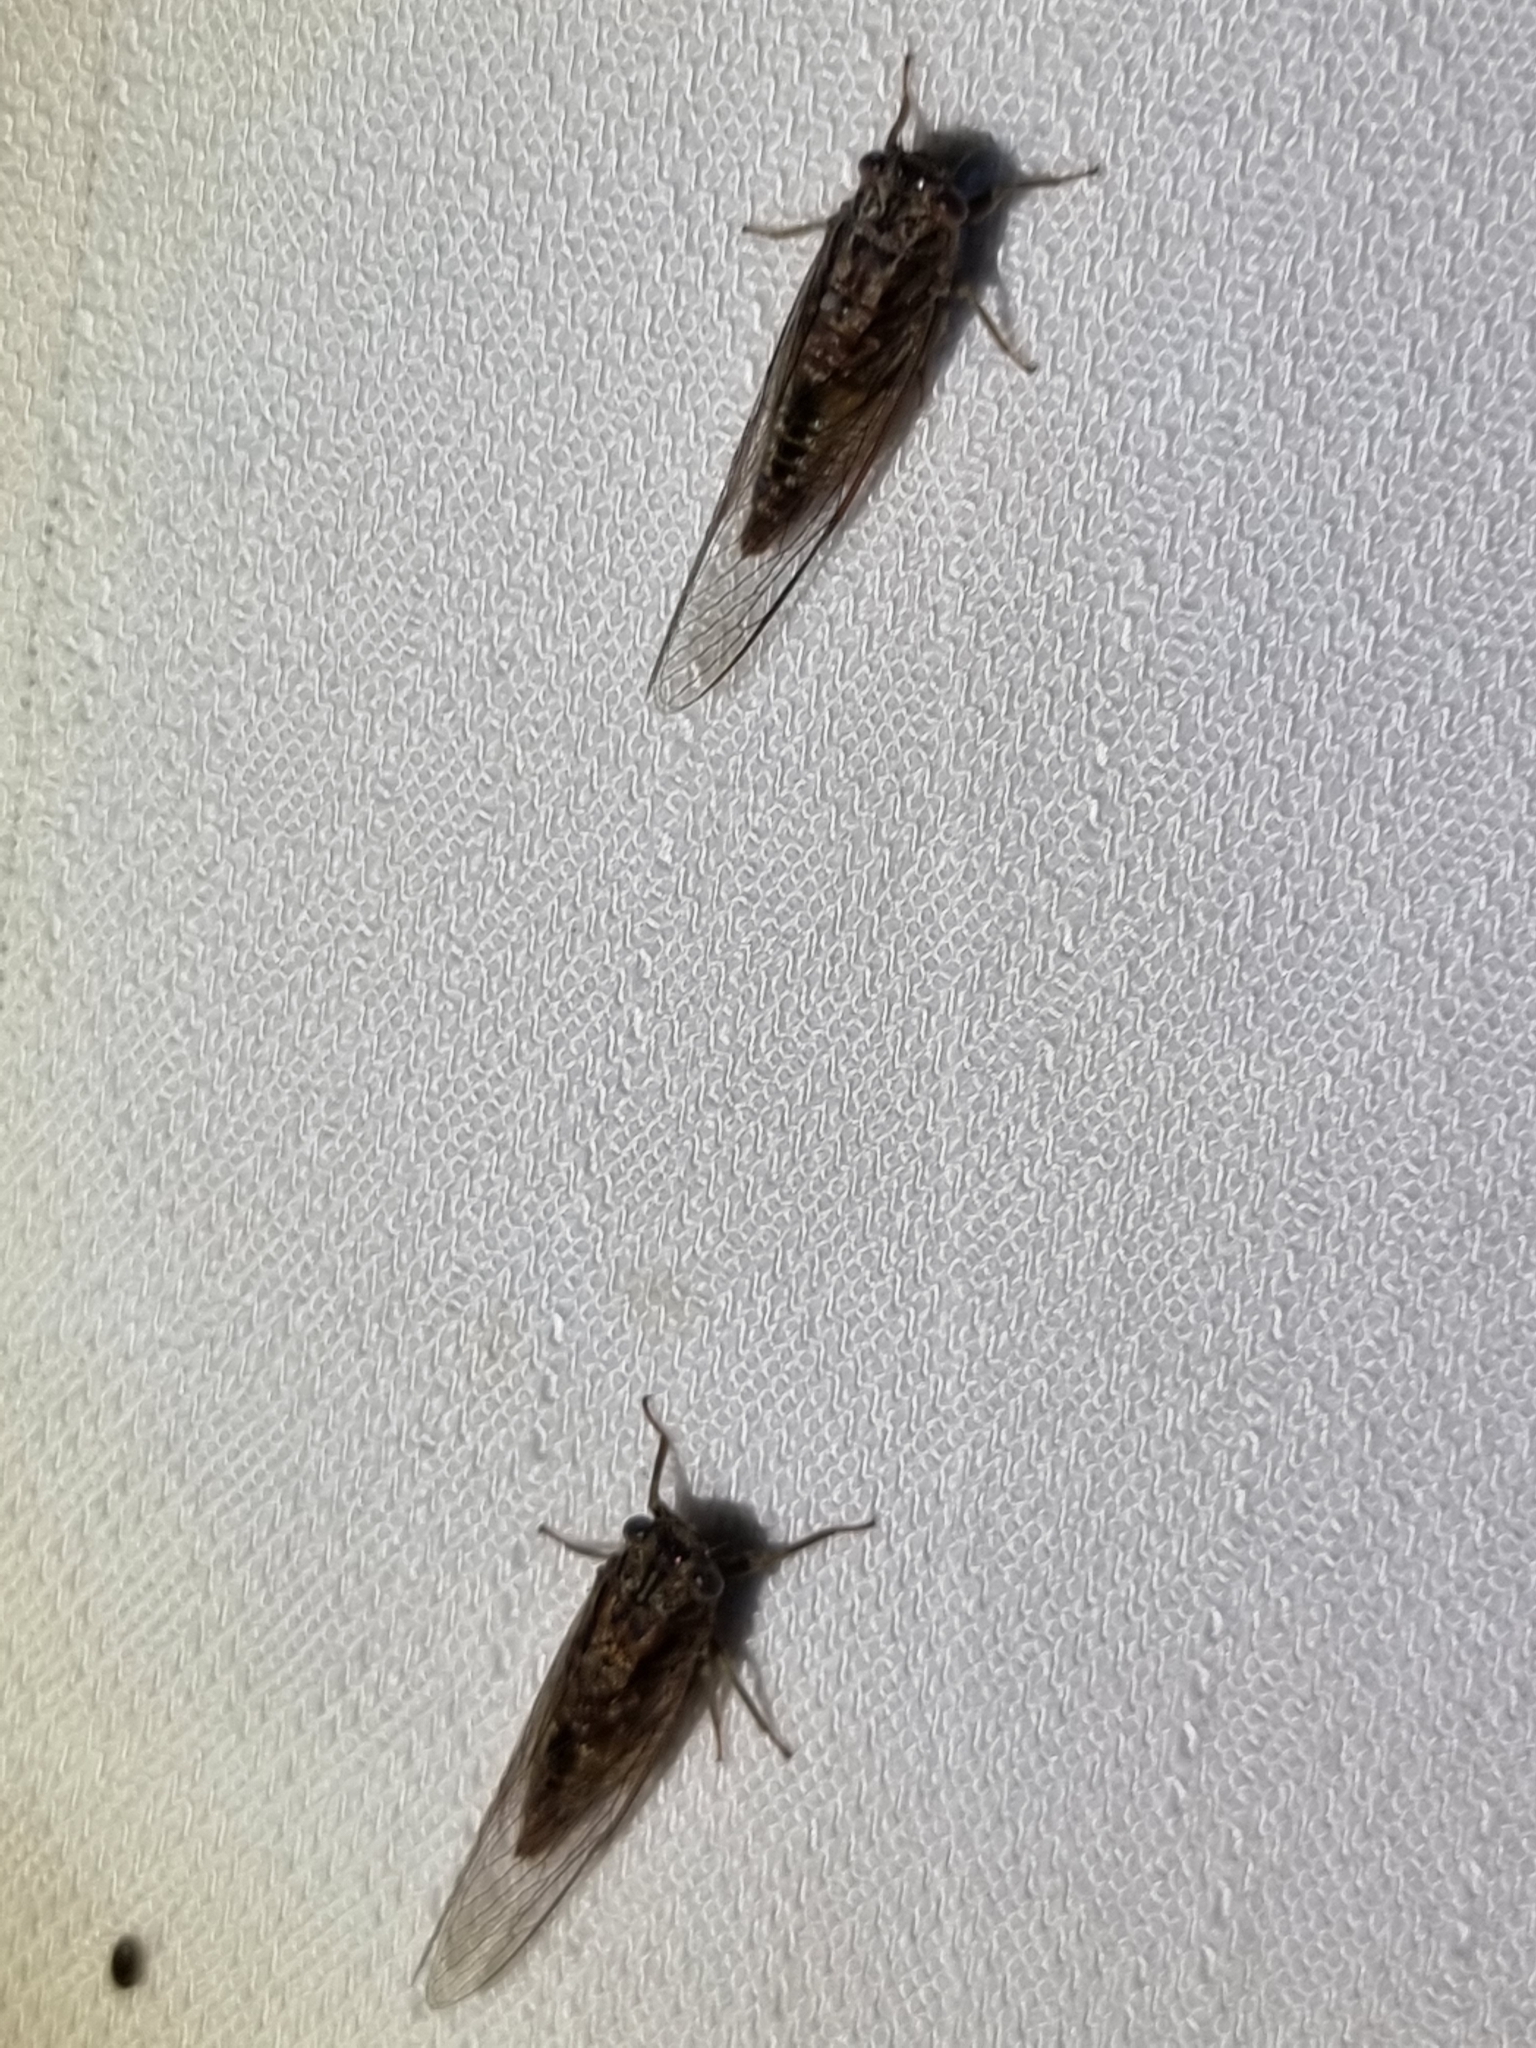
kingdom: Animalia
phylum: Arthropoda
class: Insecta
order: Hemiptera
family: Cicadidae
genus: Telmapsalta
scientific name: Telmapsalta hackeri
